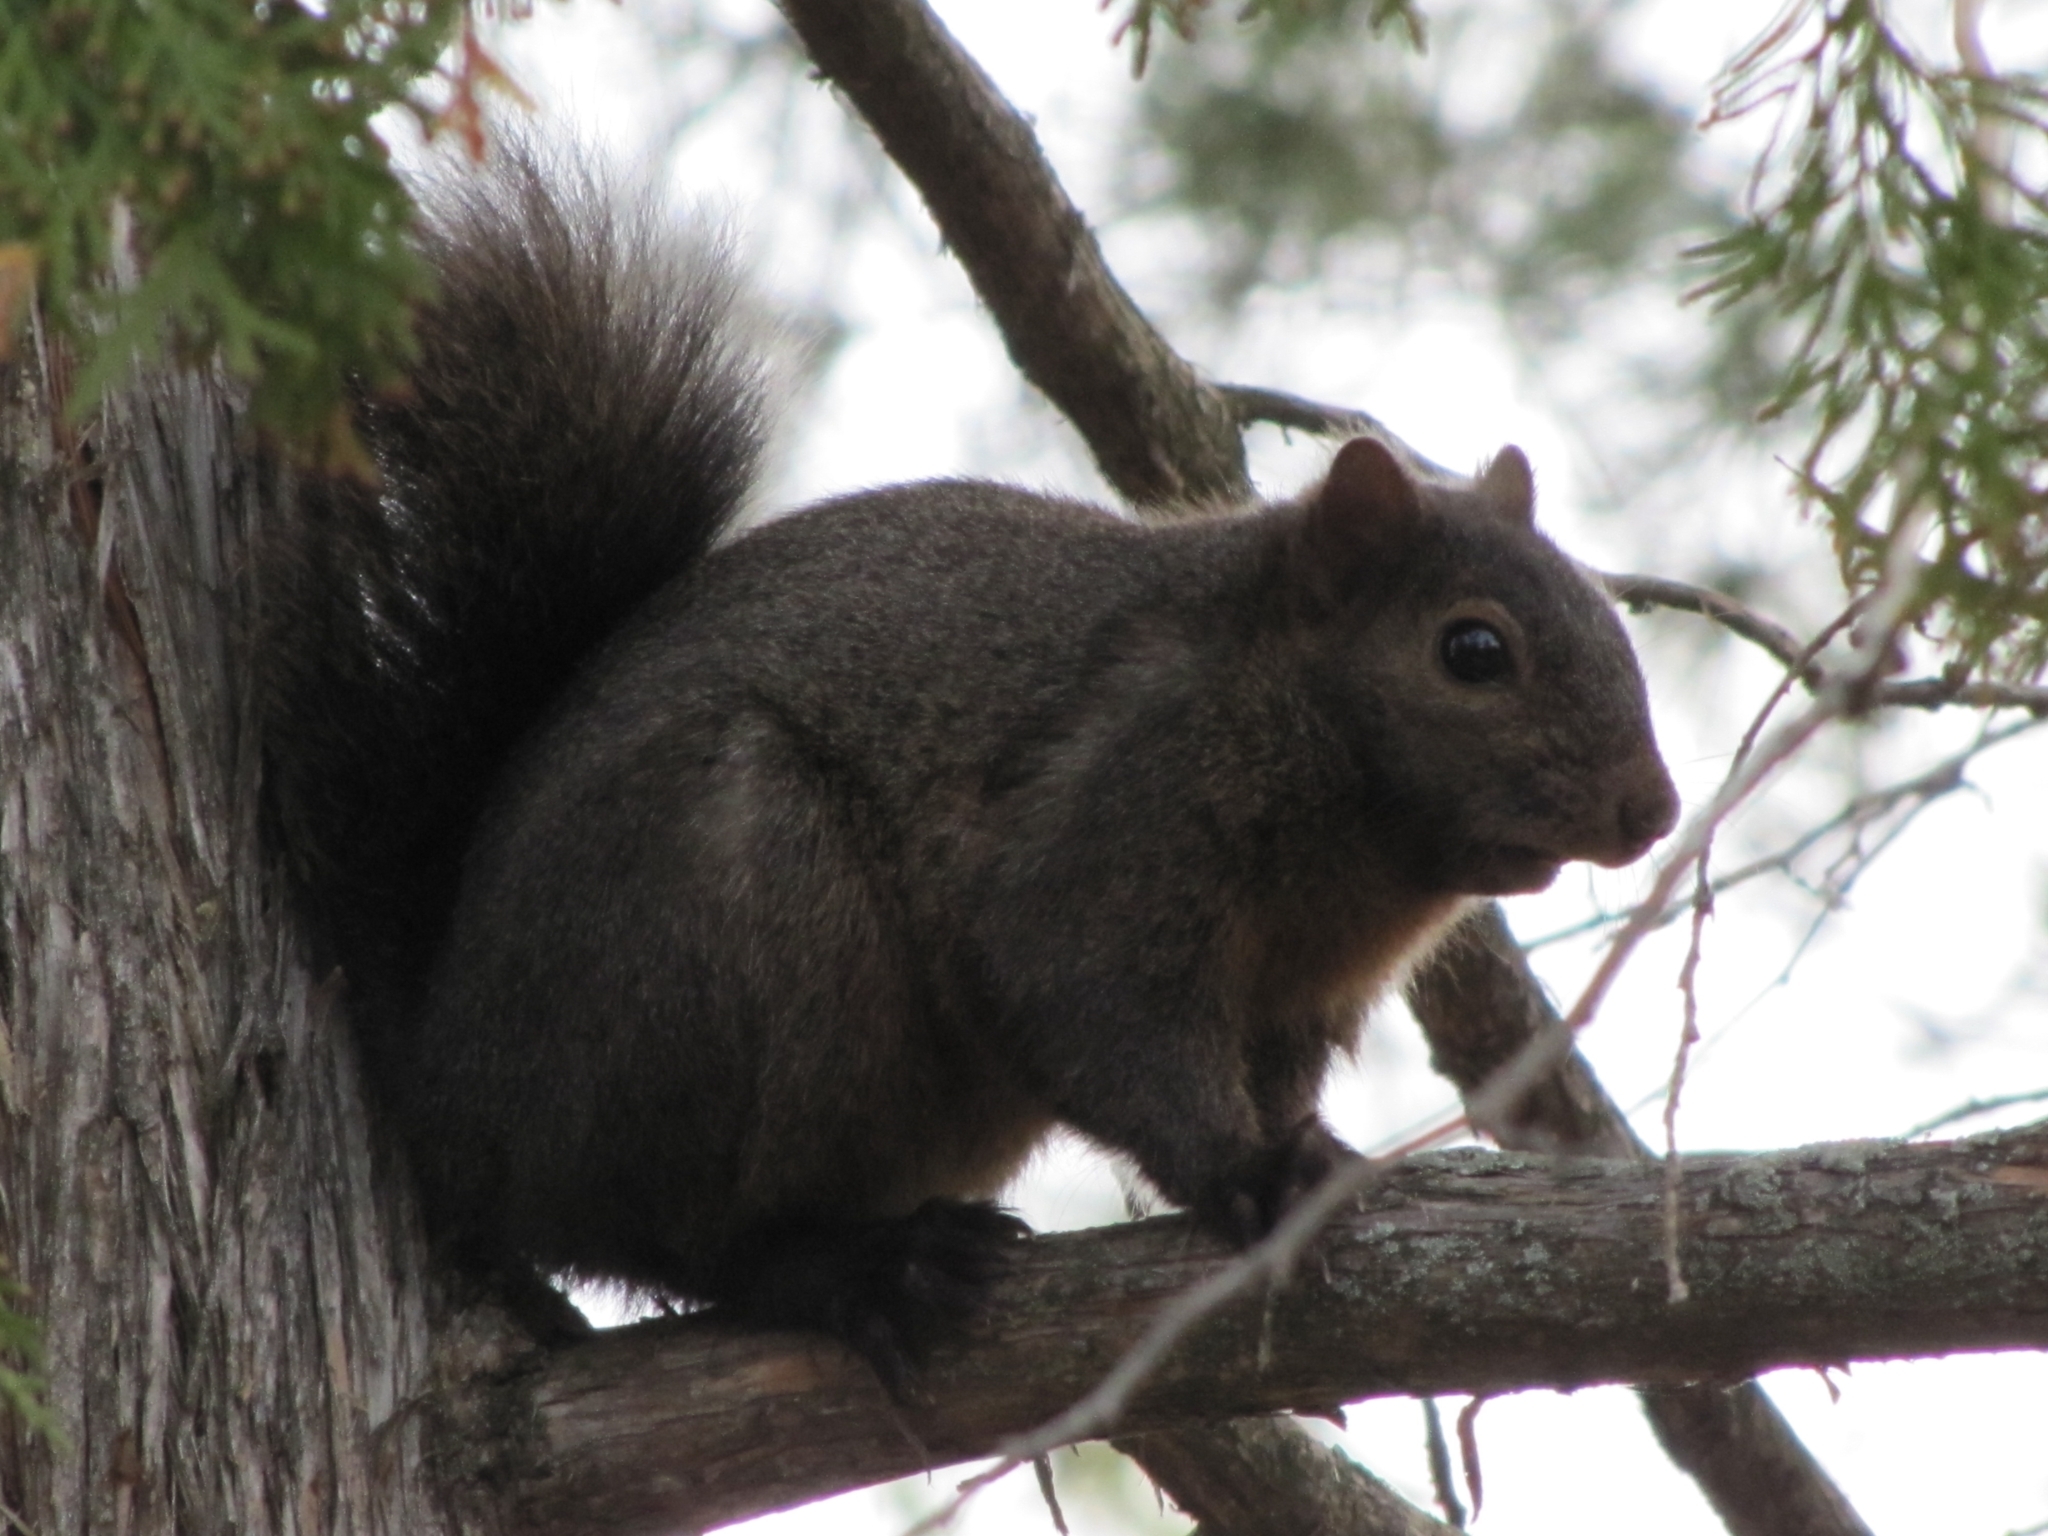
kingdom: Animalia
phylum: Chordata
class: Mammalia
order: Rodentia
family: Sciuridae
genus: Sciurus
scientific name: Sciurus carolinensis
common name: Eastern gray squirrel
